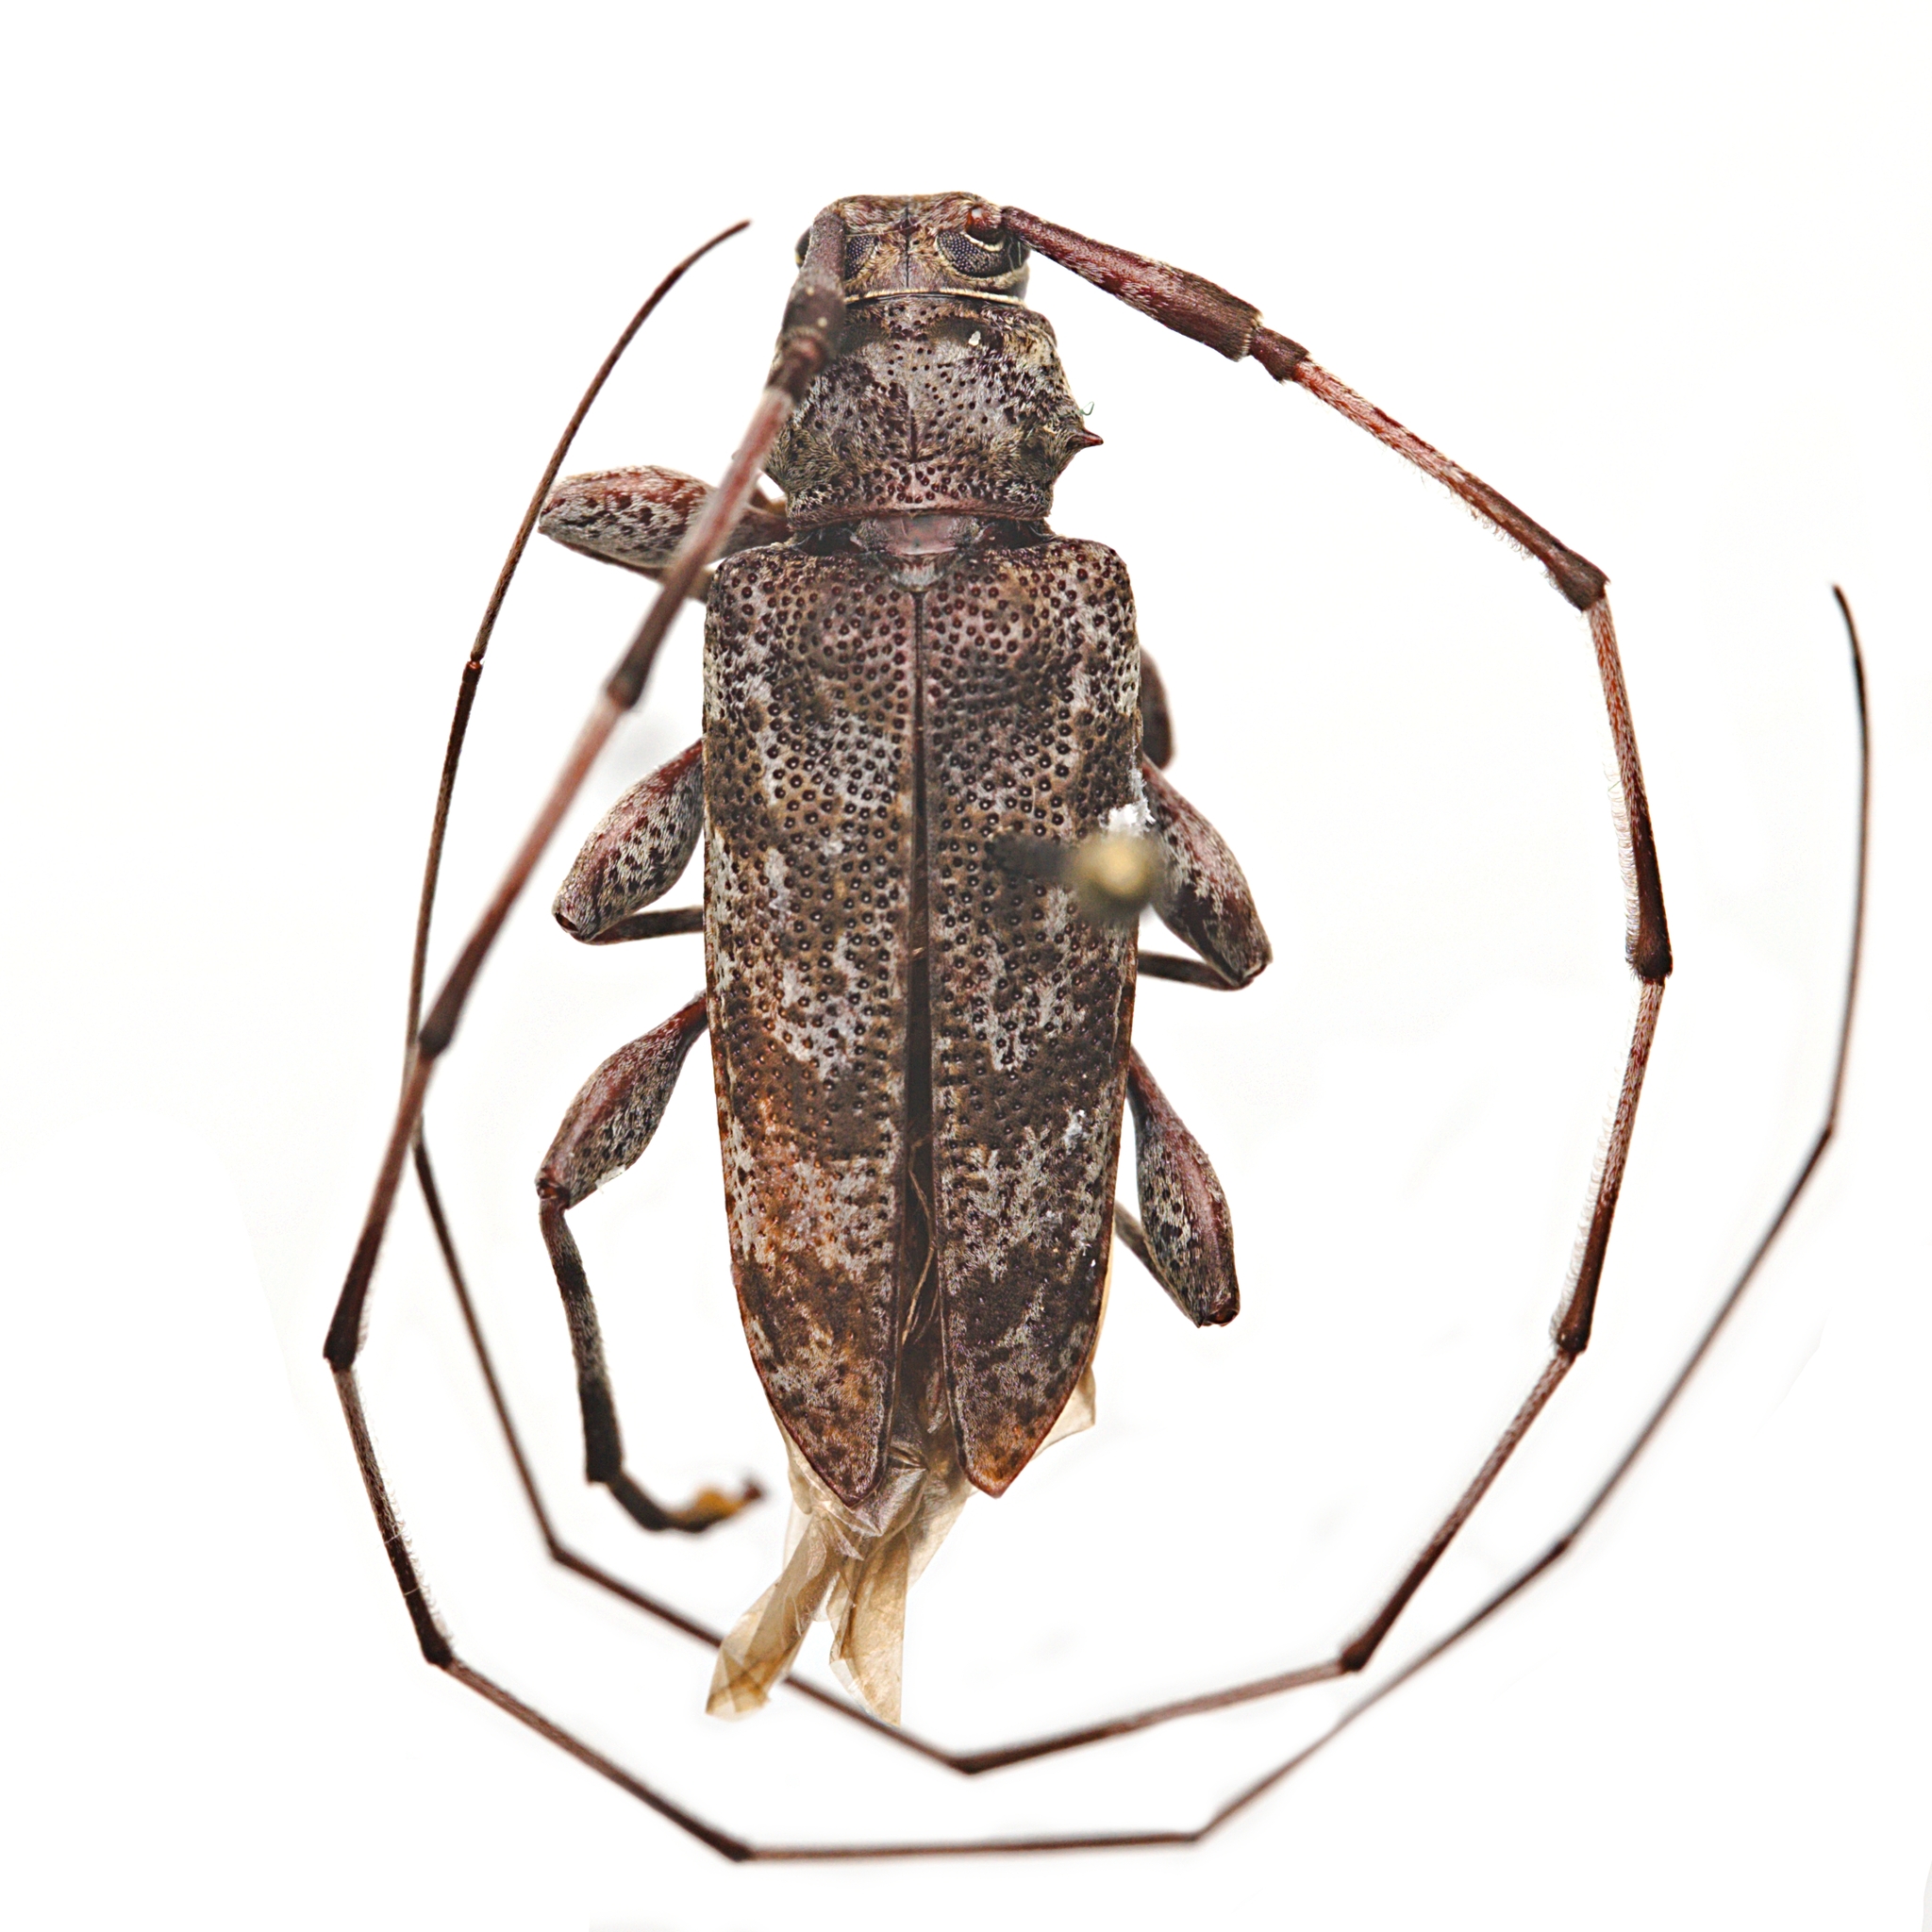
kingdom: Animalia
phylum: Arthropoda
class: Insecta
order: Coleoptera
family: Cerambycidae
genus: Acanthocinus
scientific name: Acanthocinus obsoletus
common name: Roundheaded borer
